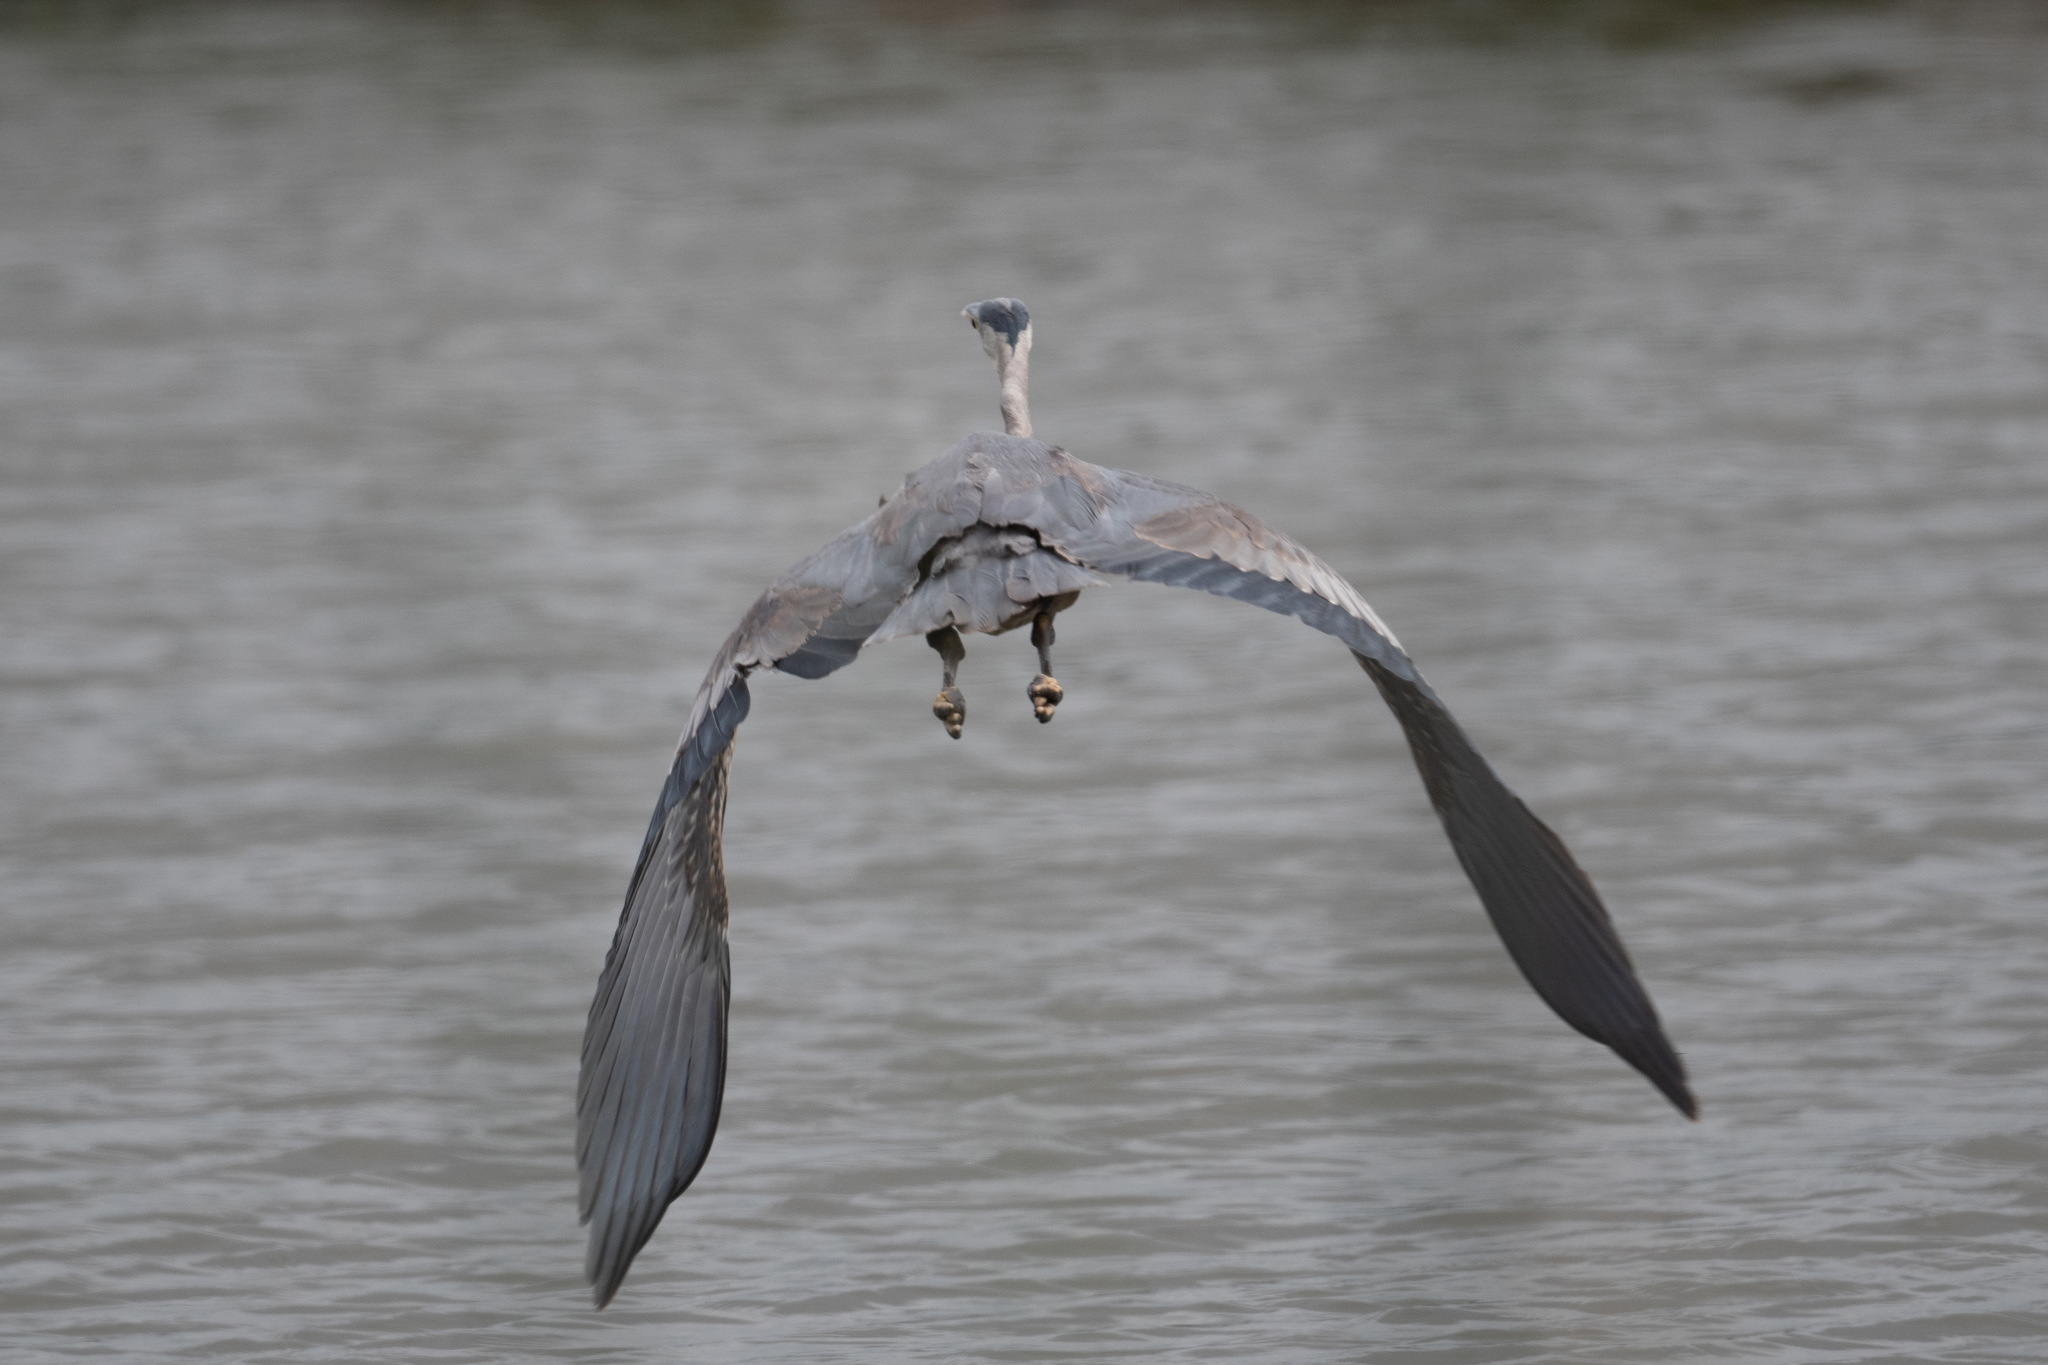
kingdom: Animalia
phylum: Chordata
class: Aves
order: Pelecaniformes
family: Ardeidae
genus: Ardea
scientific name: Ardea herodias
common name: Great blue heron
